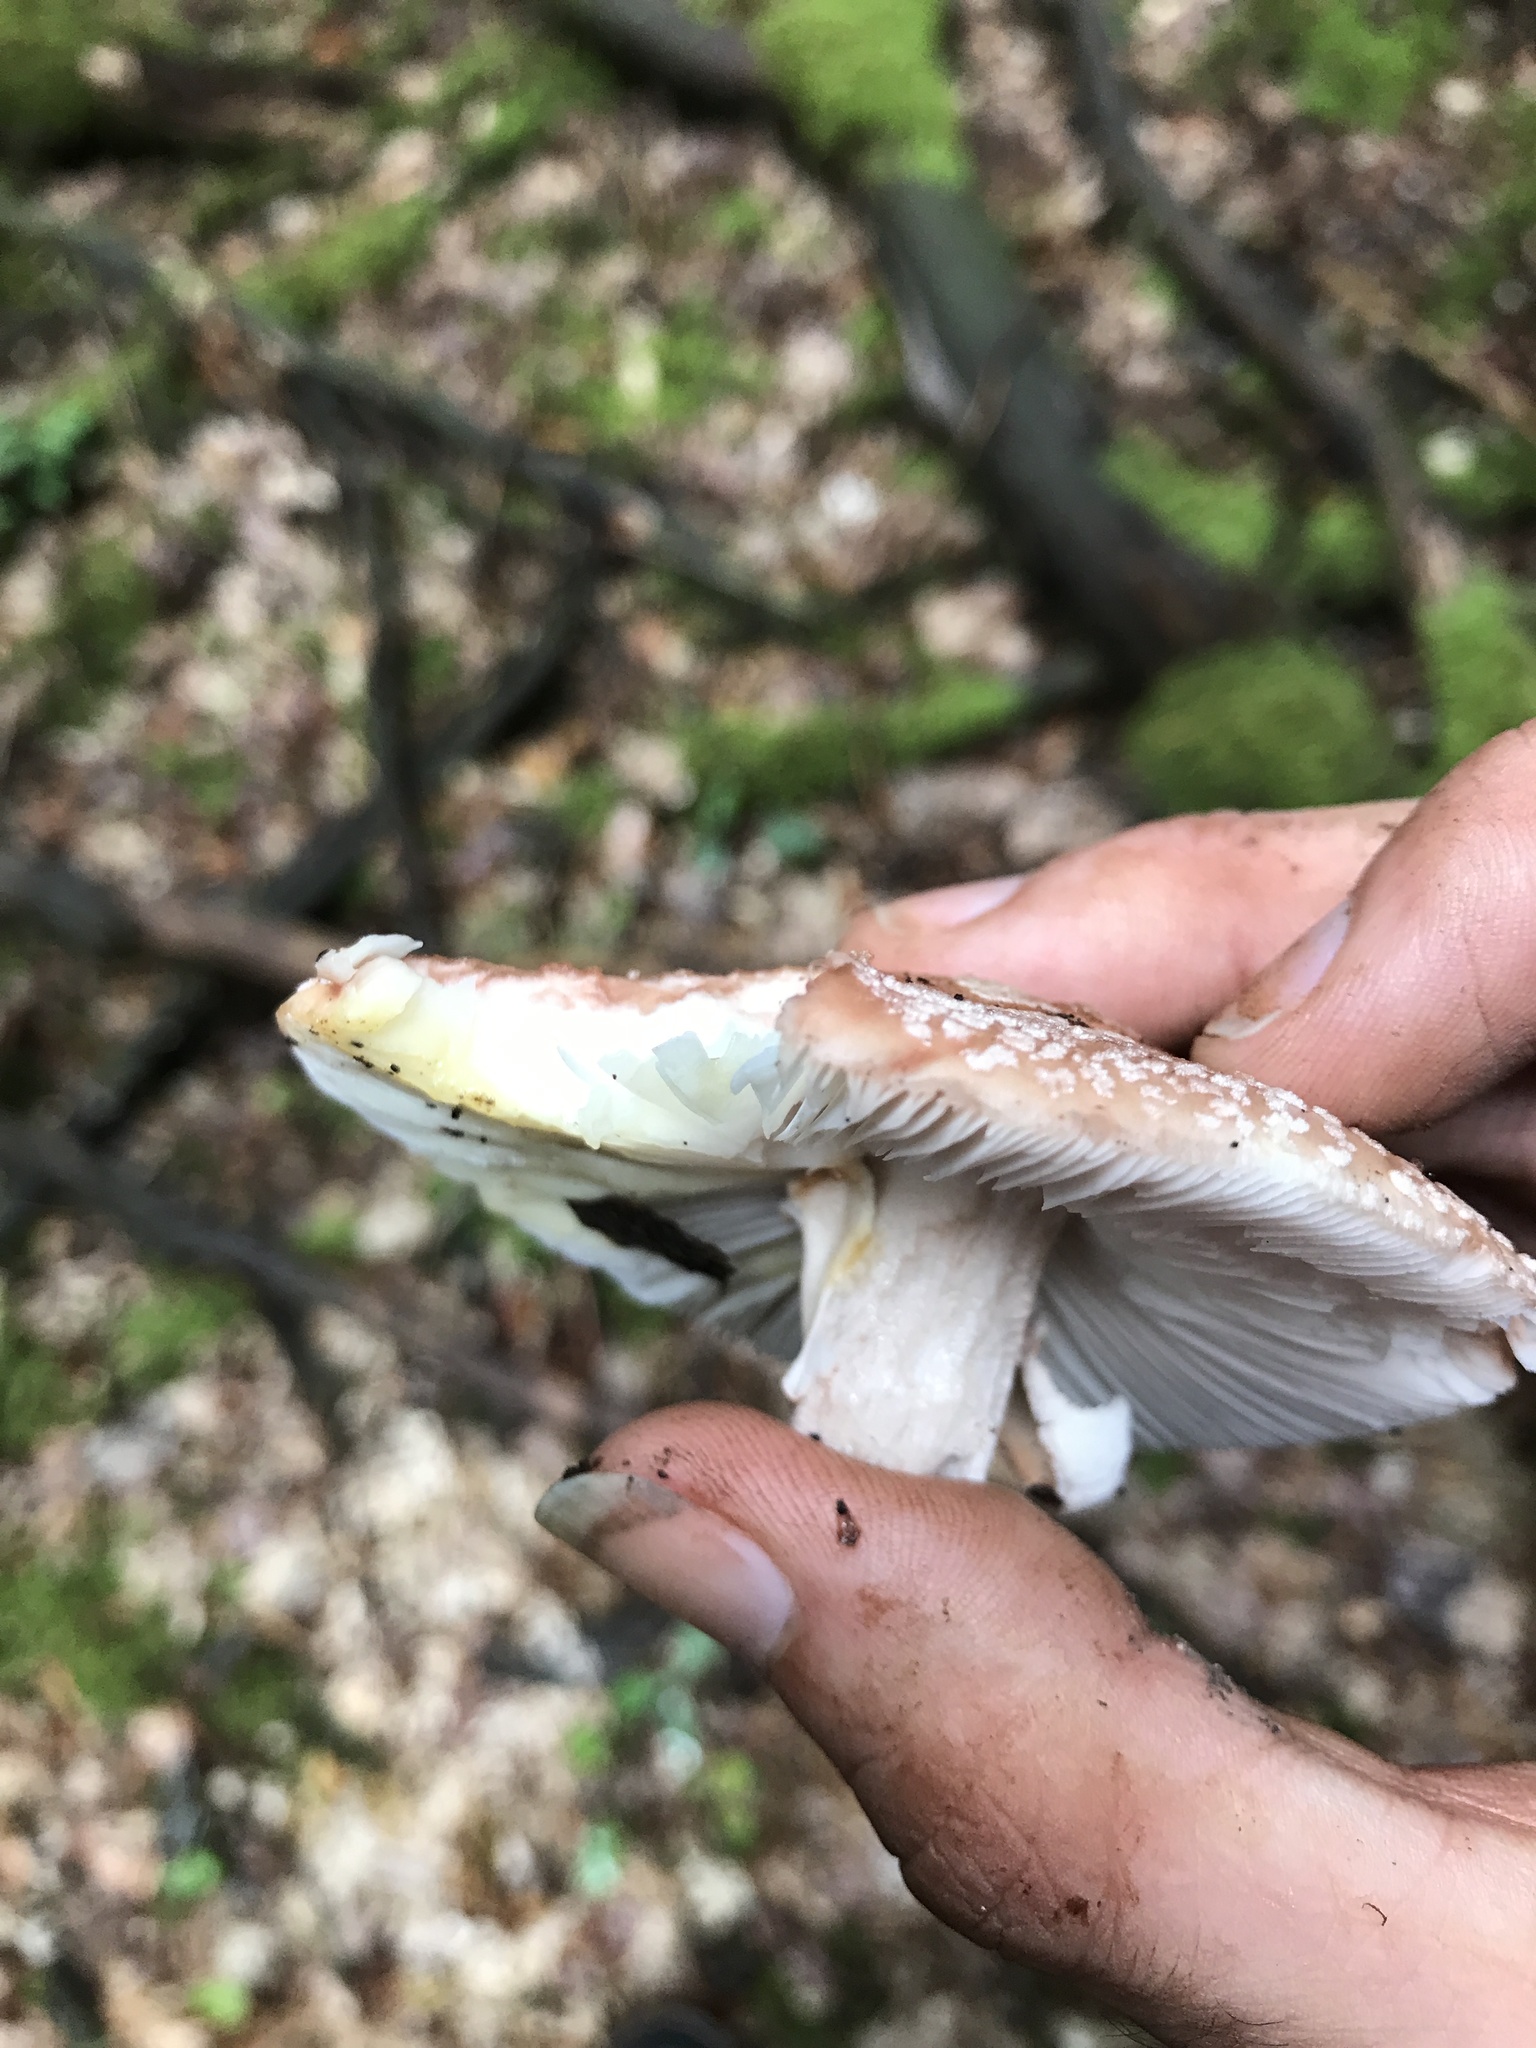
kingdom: Fungi
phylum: Basidiomycota
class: Agaricomycetes
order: Agaricales
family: Amanitaceae
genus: Amanita
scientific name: Amanita rubescens
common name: Blusher
